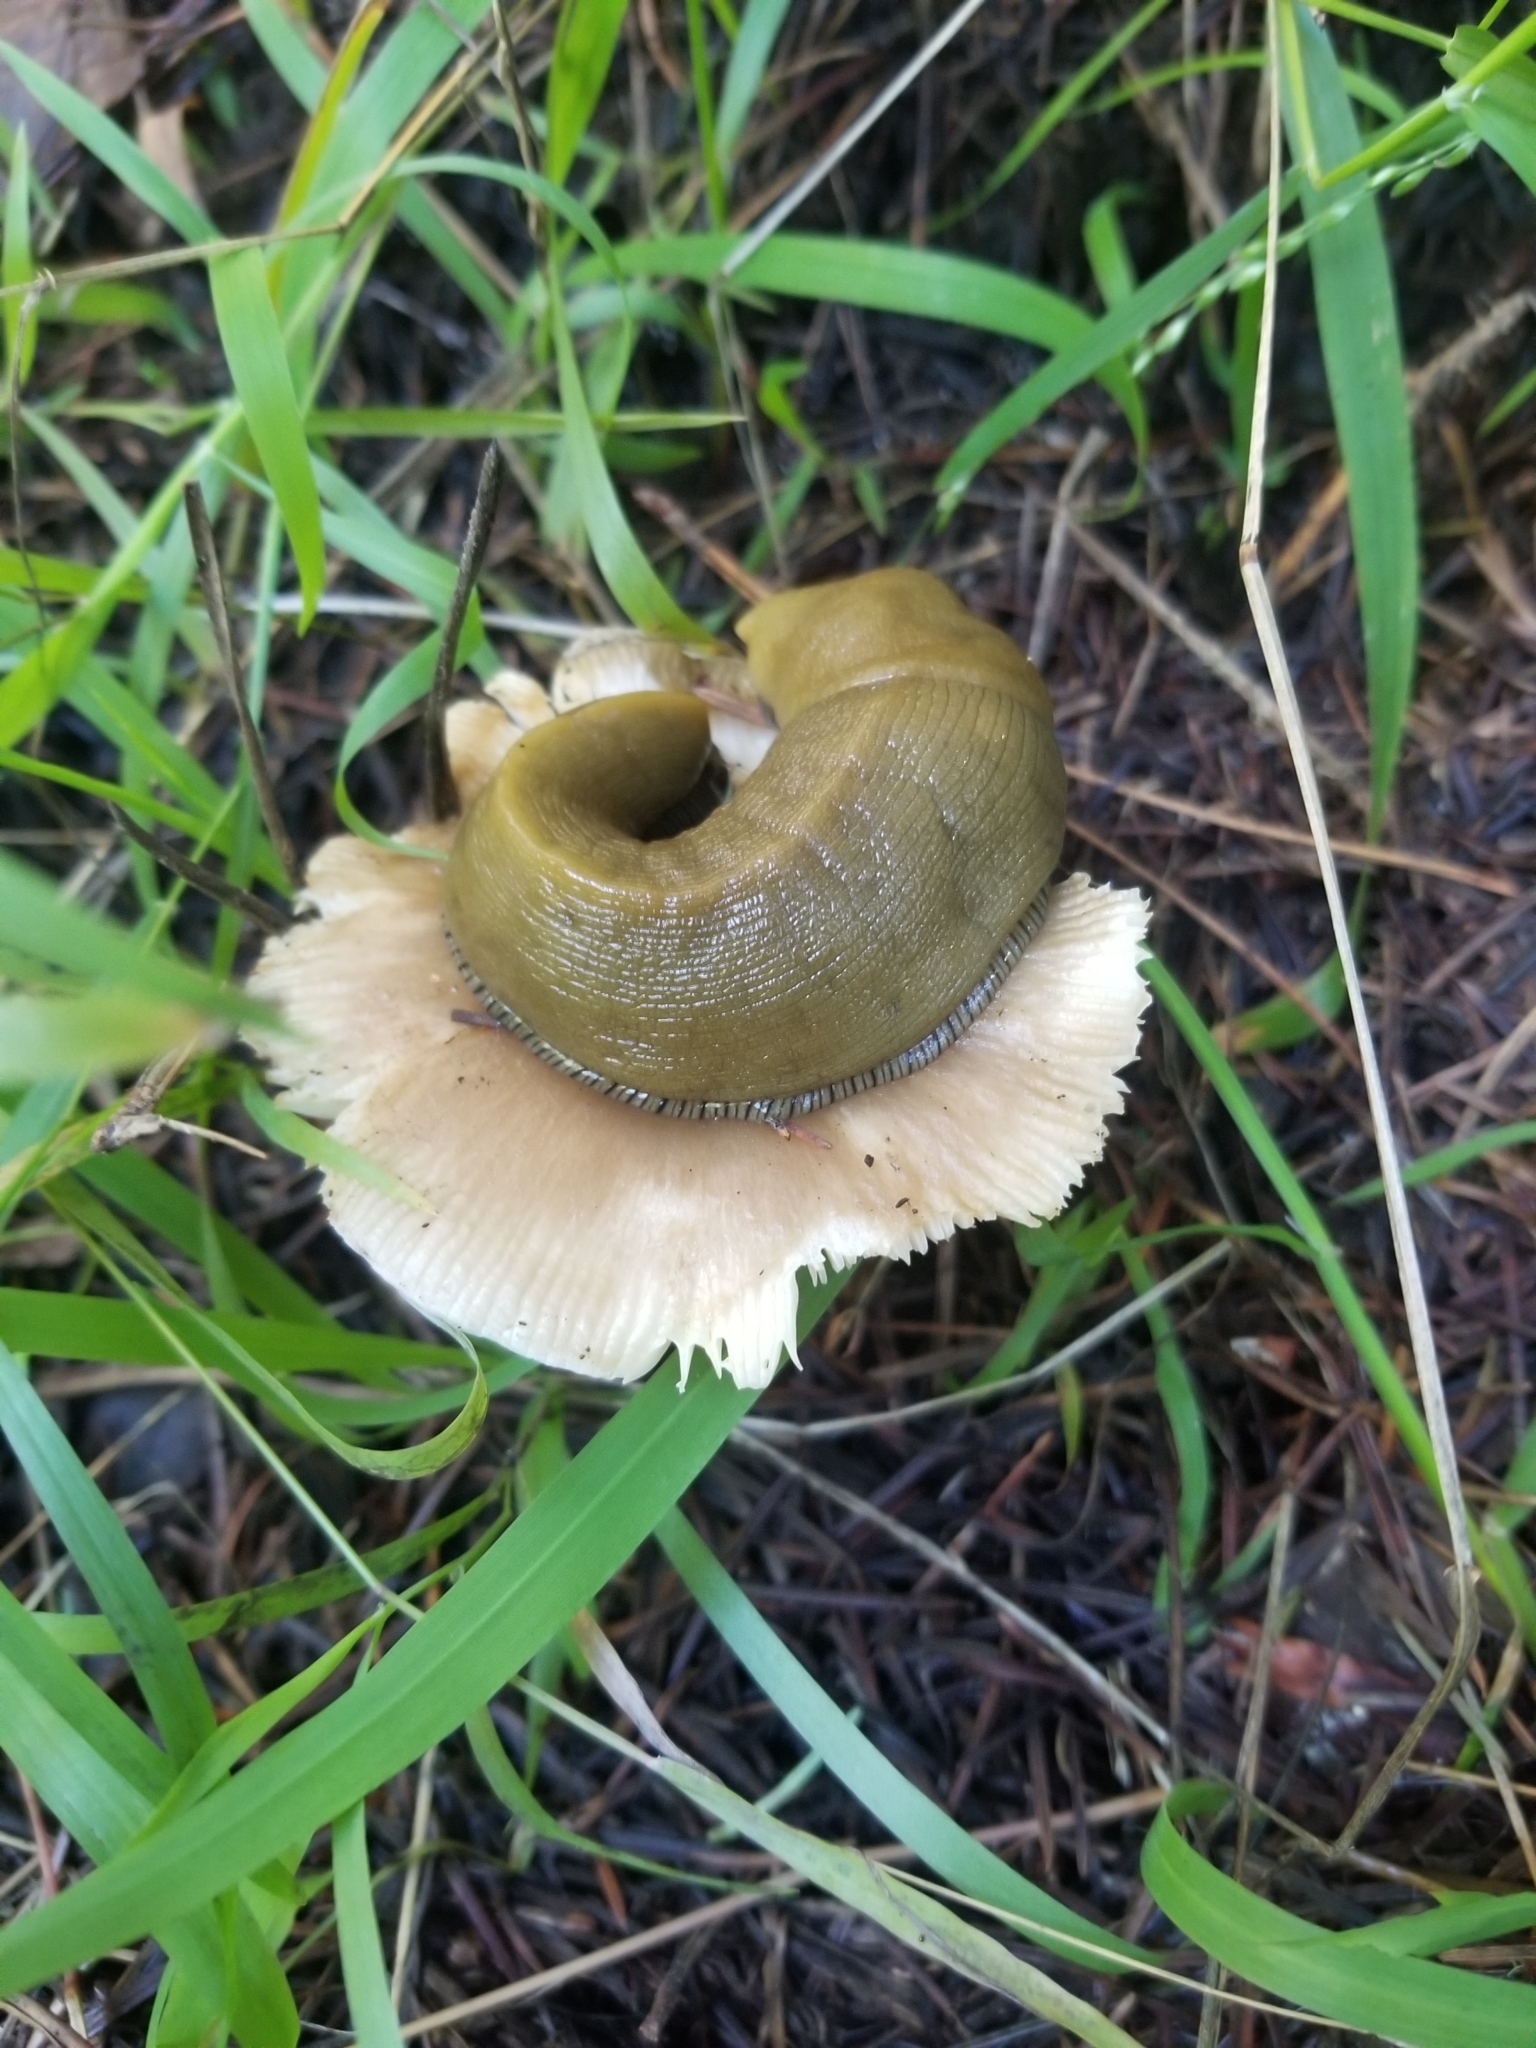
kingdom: Animalia
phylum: Mollusca
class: Gastropoda
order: Stylommatophora
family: Ariolimacidae
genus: Ariolimax
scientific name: Ariolimax buttoni
